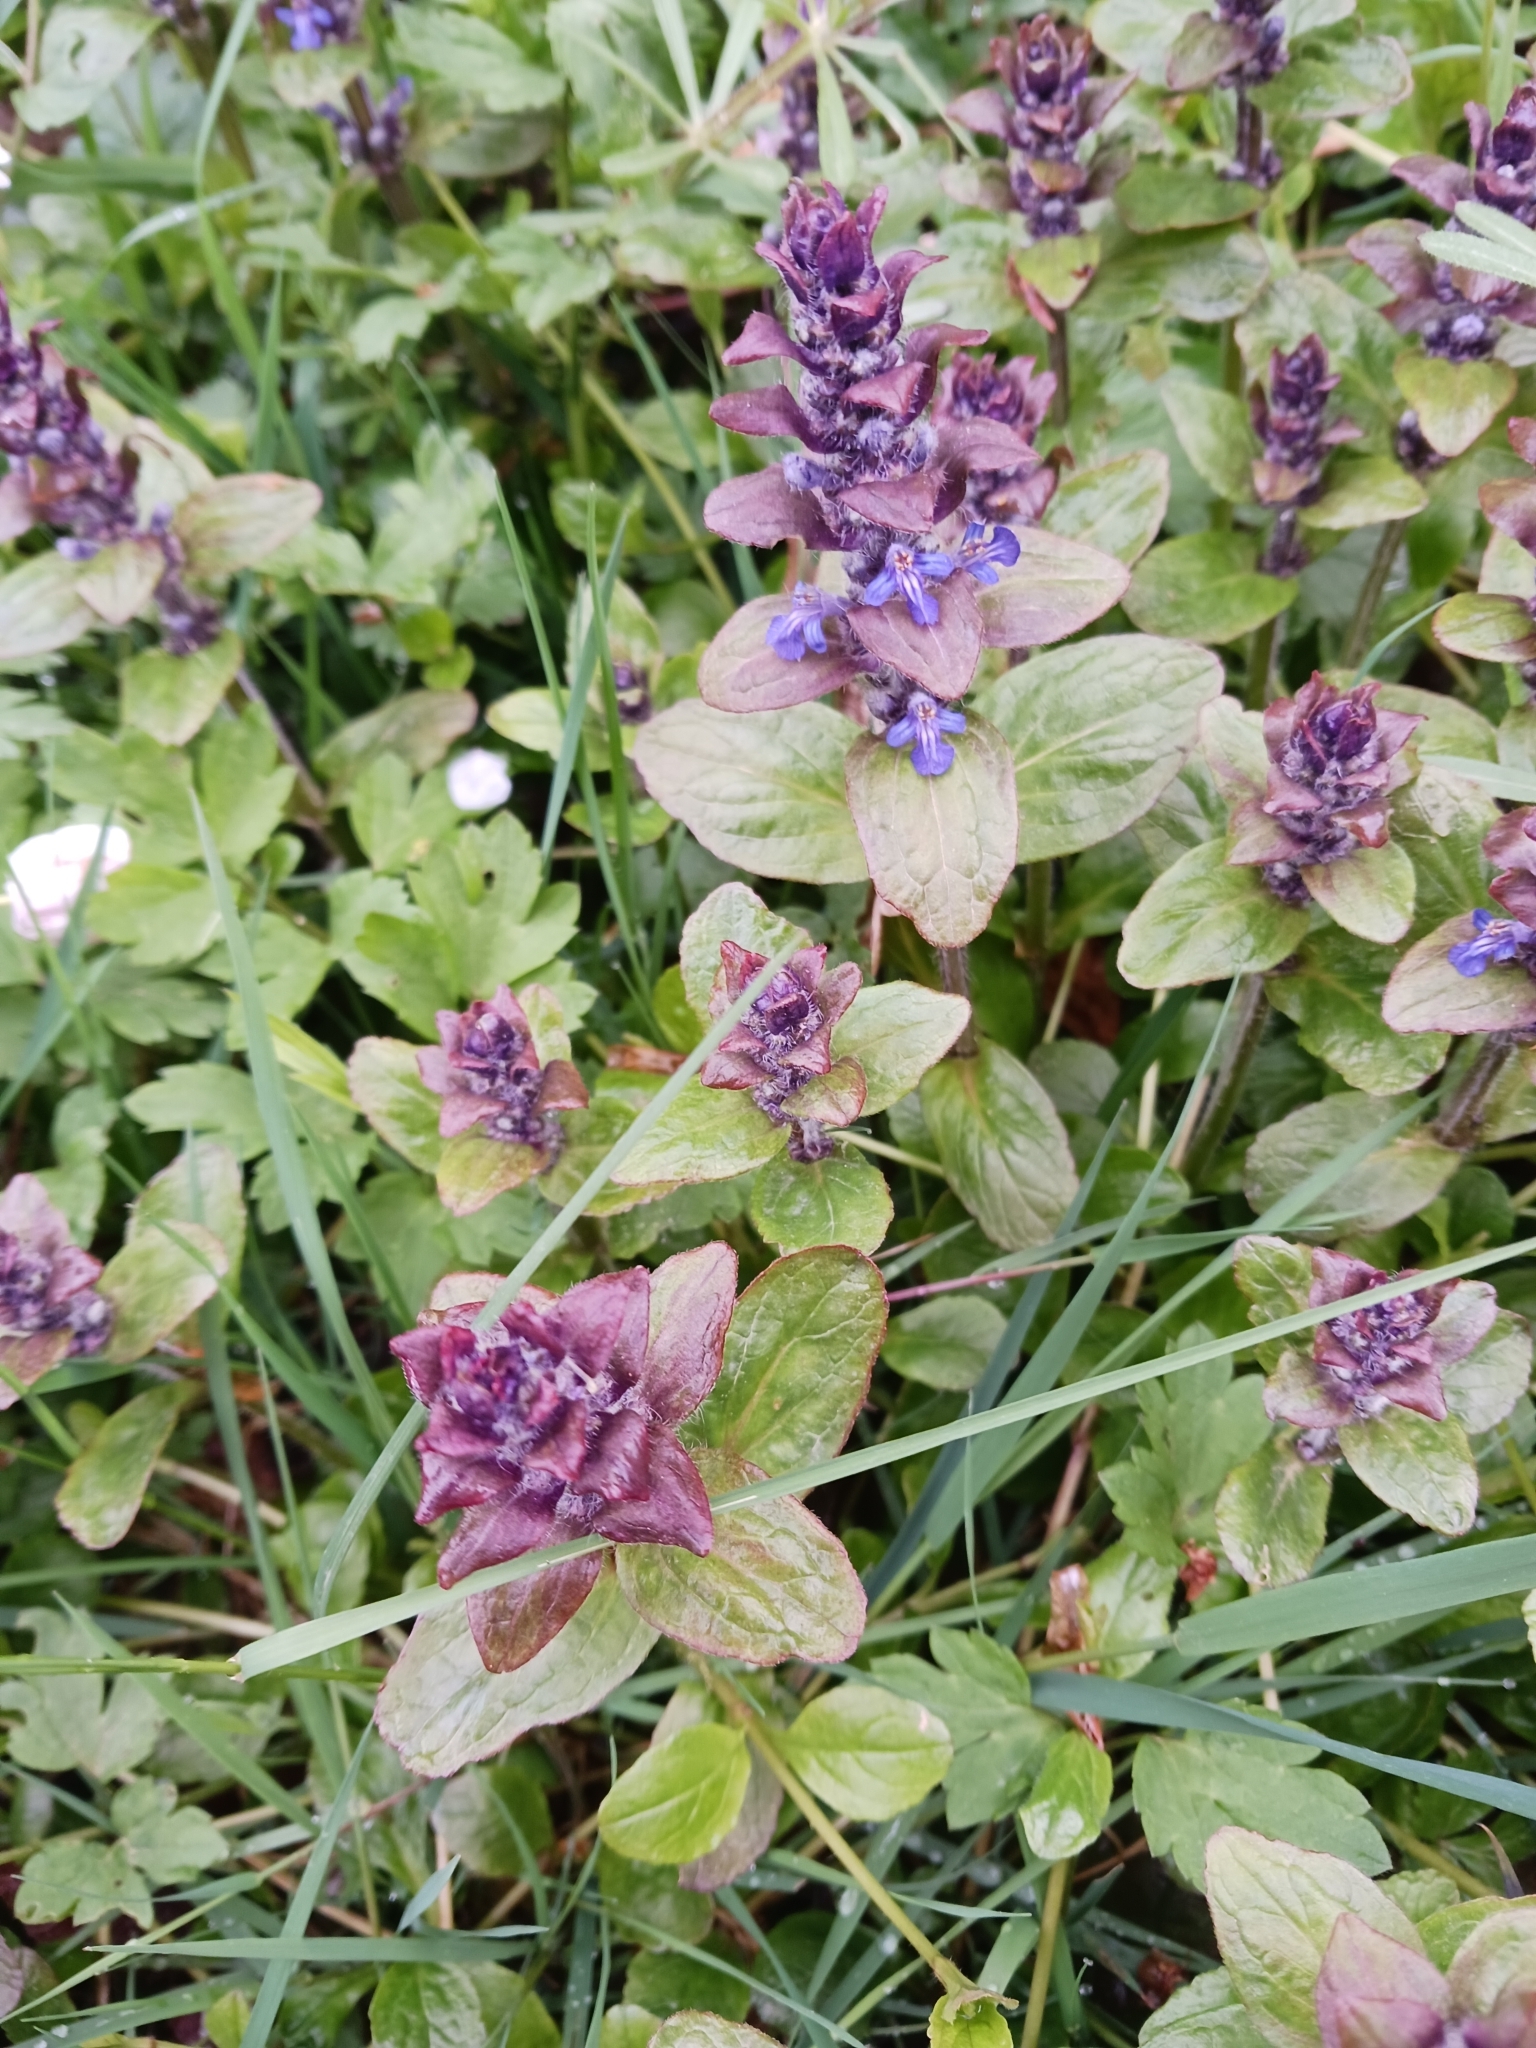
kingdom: Plantae
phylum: Tracheophyta
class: Magnoliopsida
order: Lamiales
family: Lamiaceae
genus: Ajuga
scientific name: Ajuga reptans
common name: Bugle
